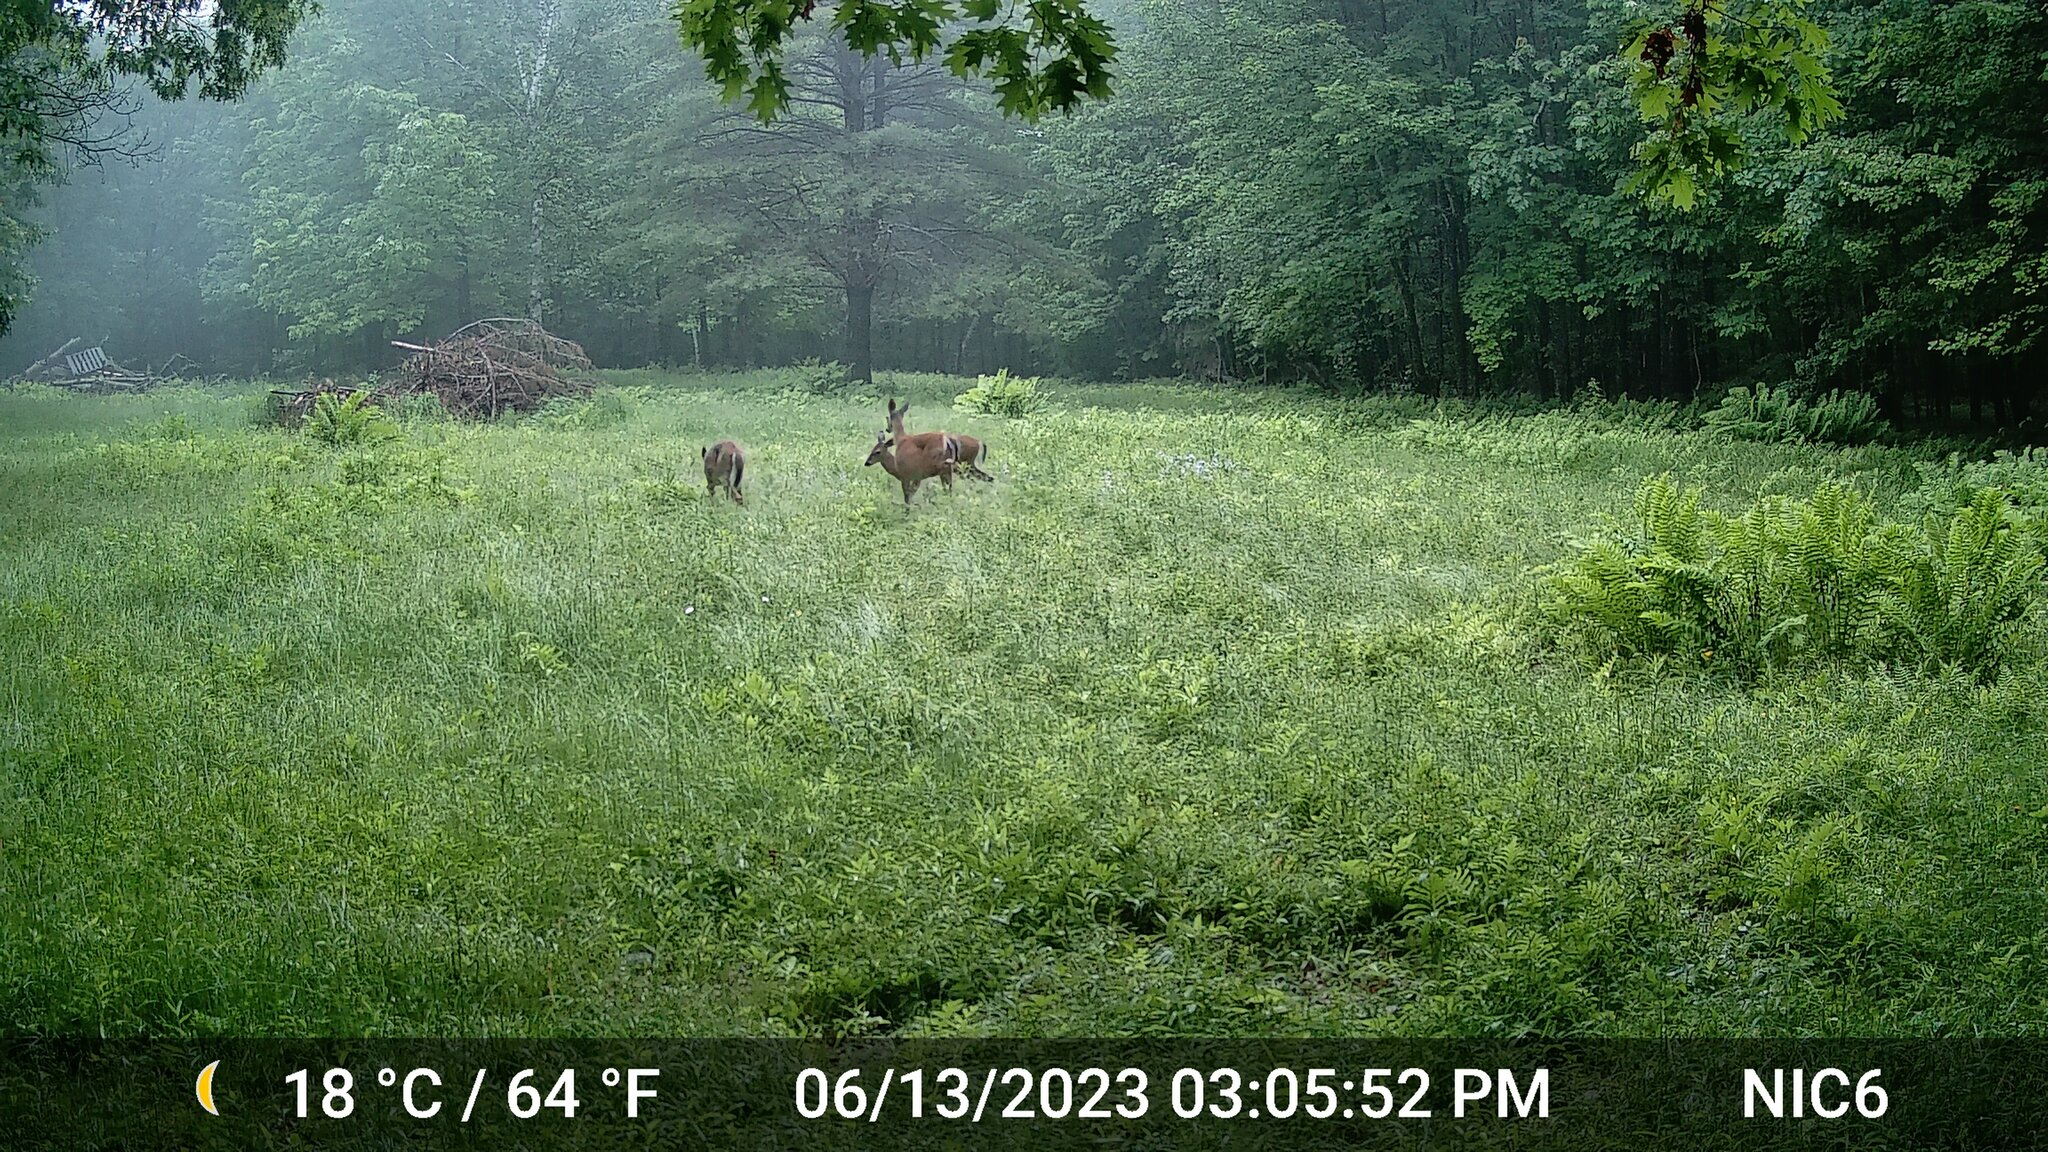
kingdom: Animalia
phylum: Chordata
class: Mammalia
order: Artiodactyla
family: Cervidae
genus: Odocoileus
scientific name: Odocoileus virginianus
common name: White-tailed deer
